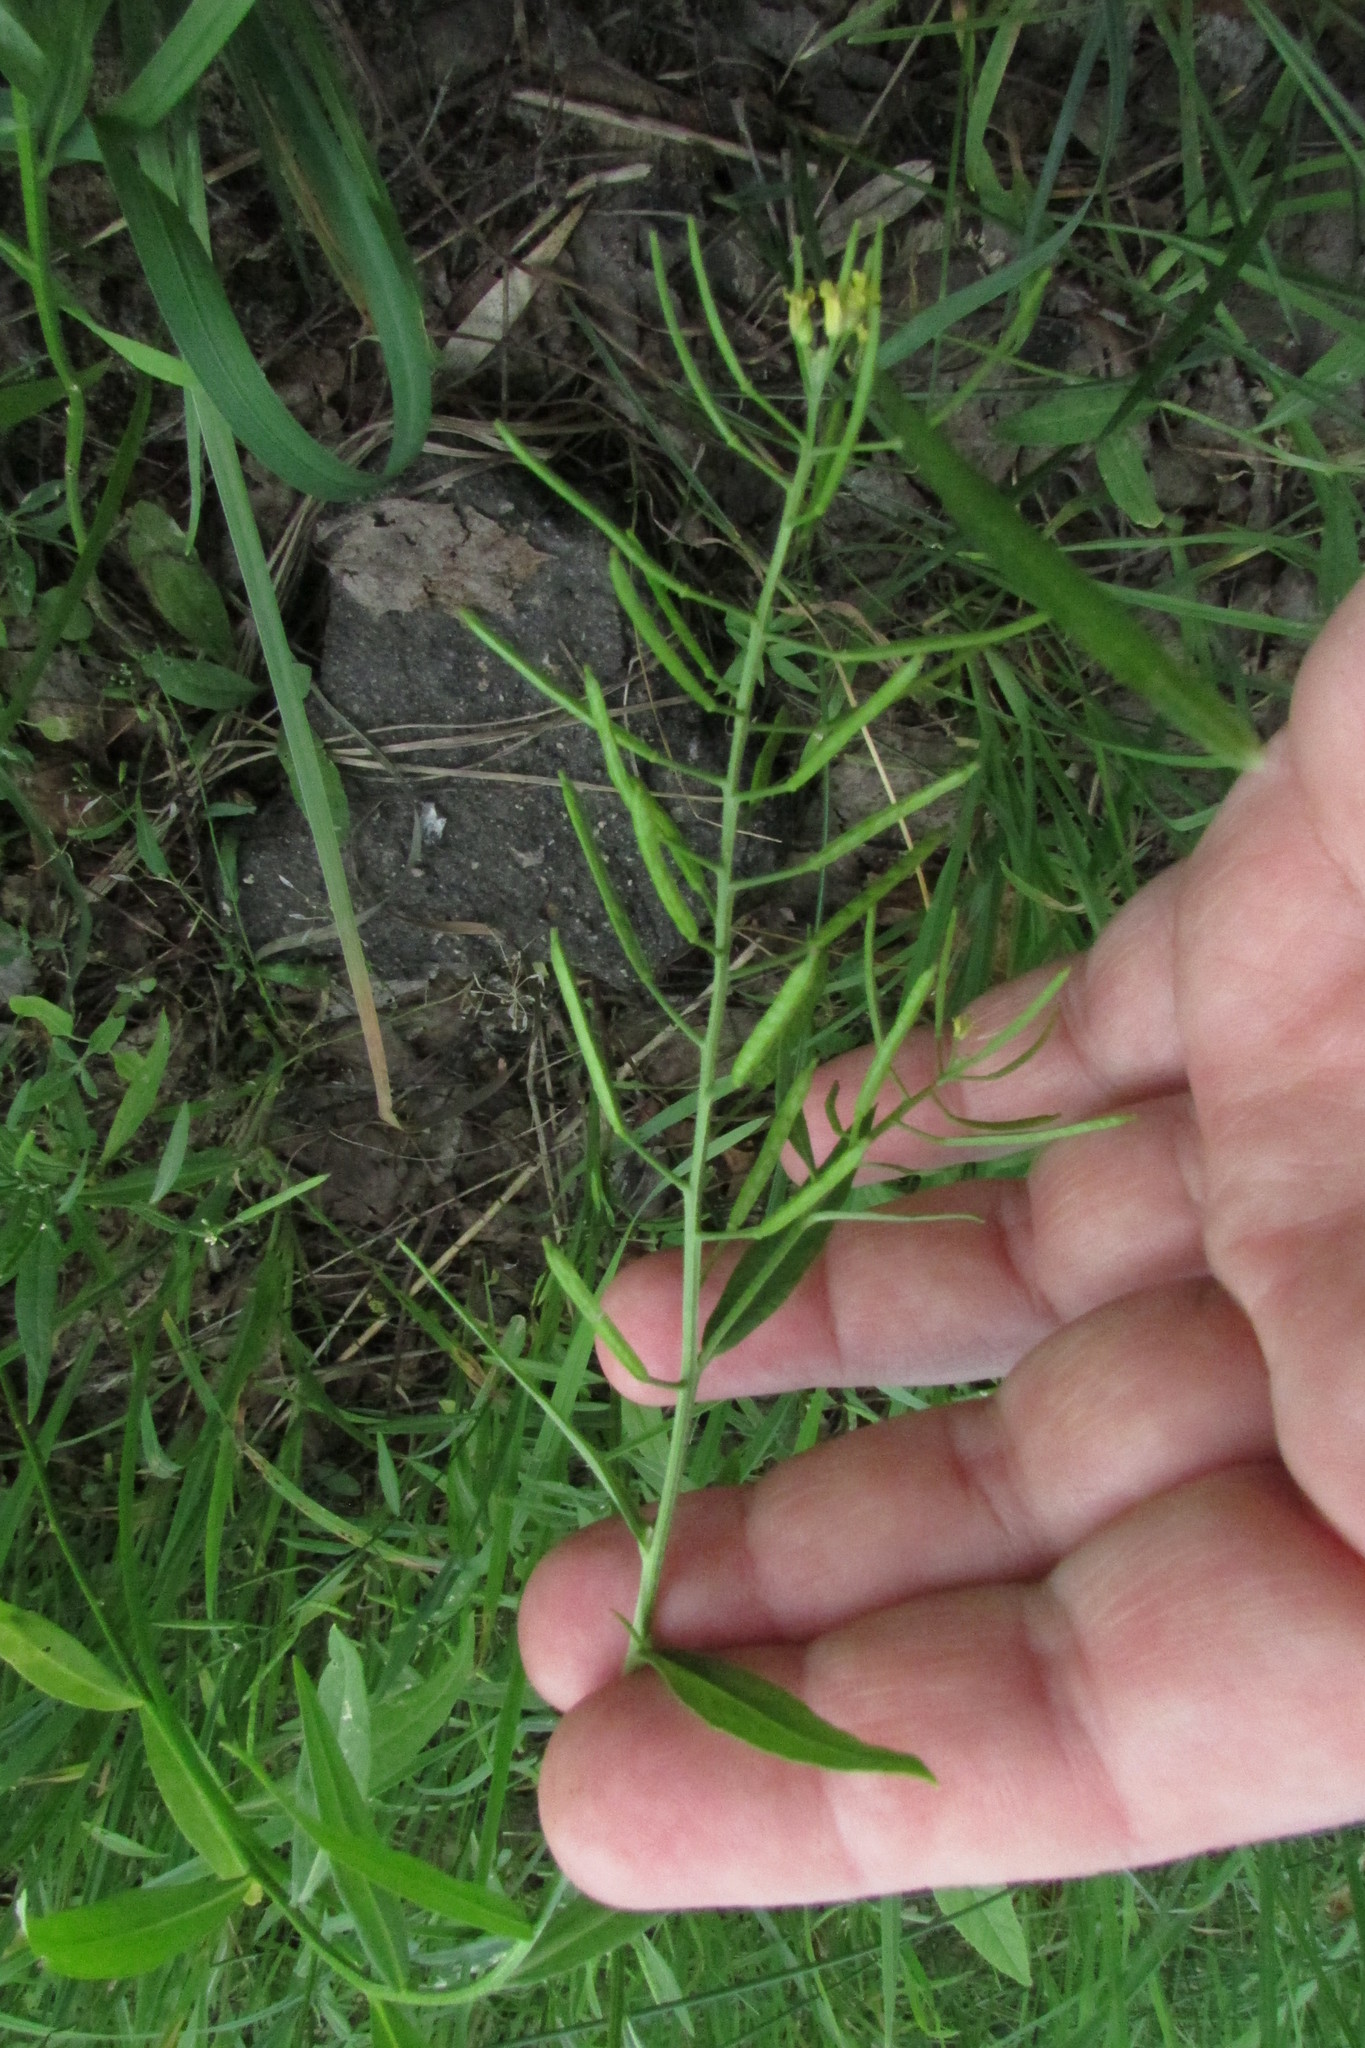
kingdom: Plantae
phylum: Tracheophyta
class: Magnoliopsida
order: Brassicales
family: Brassicaceae
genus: Erysimum
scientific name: Erysimum cheiranthoides
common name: Treacle mustard
